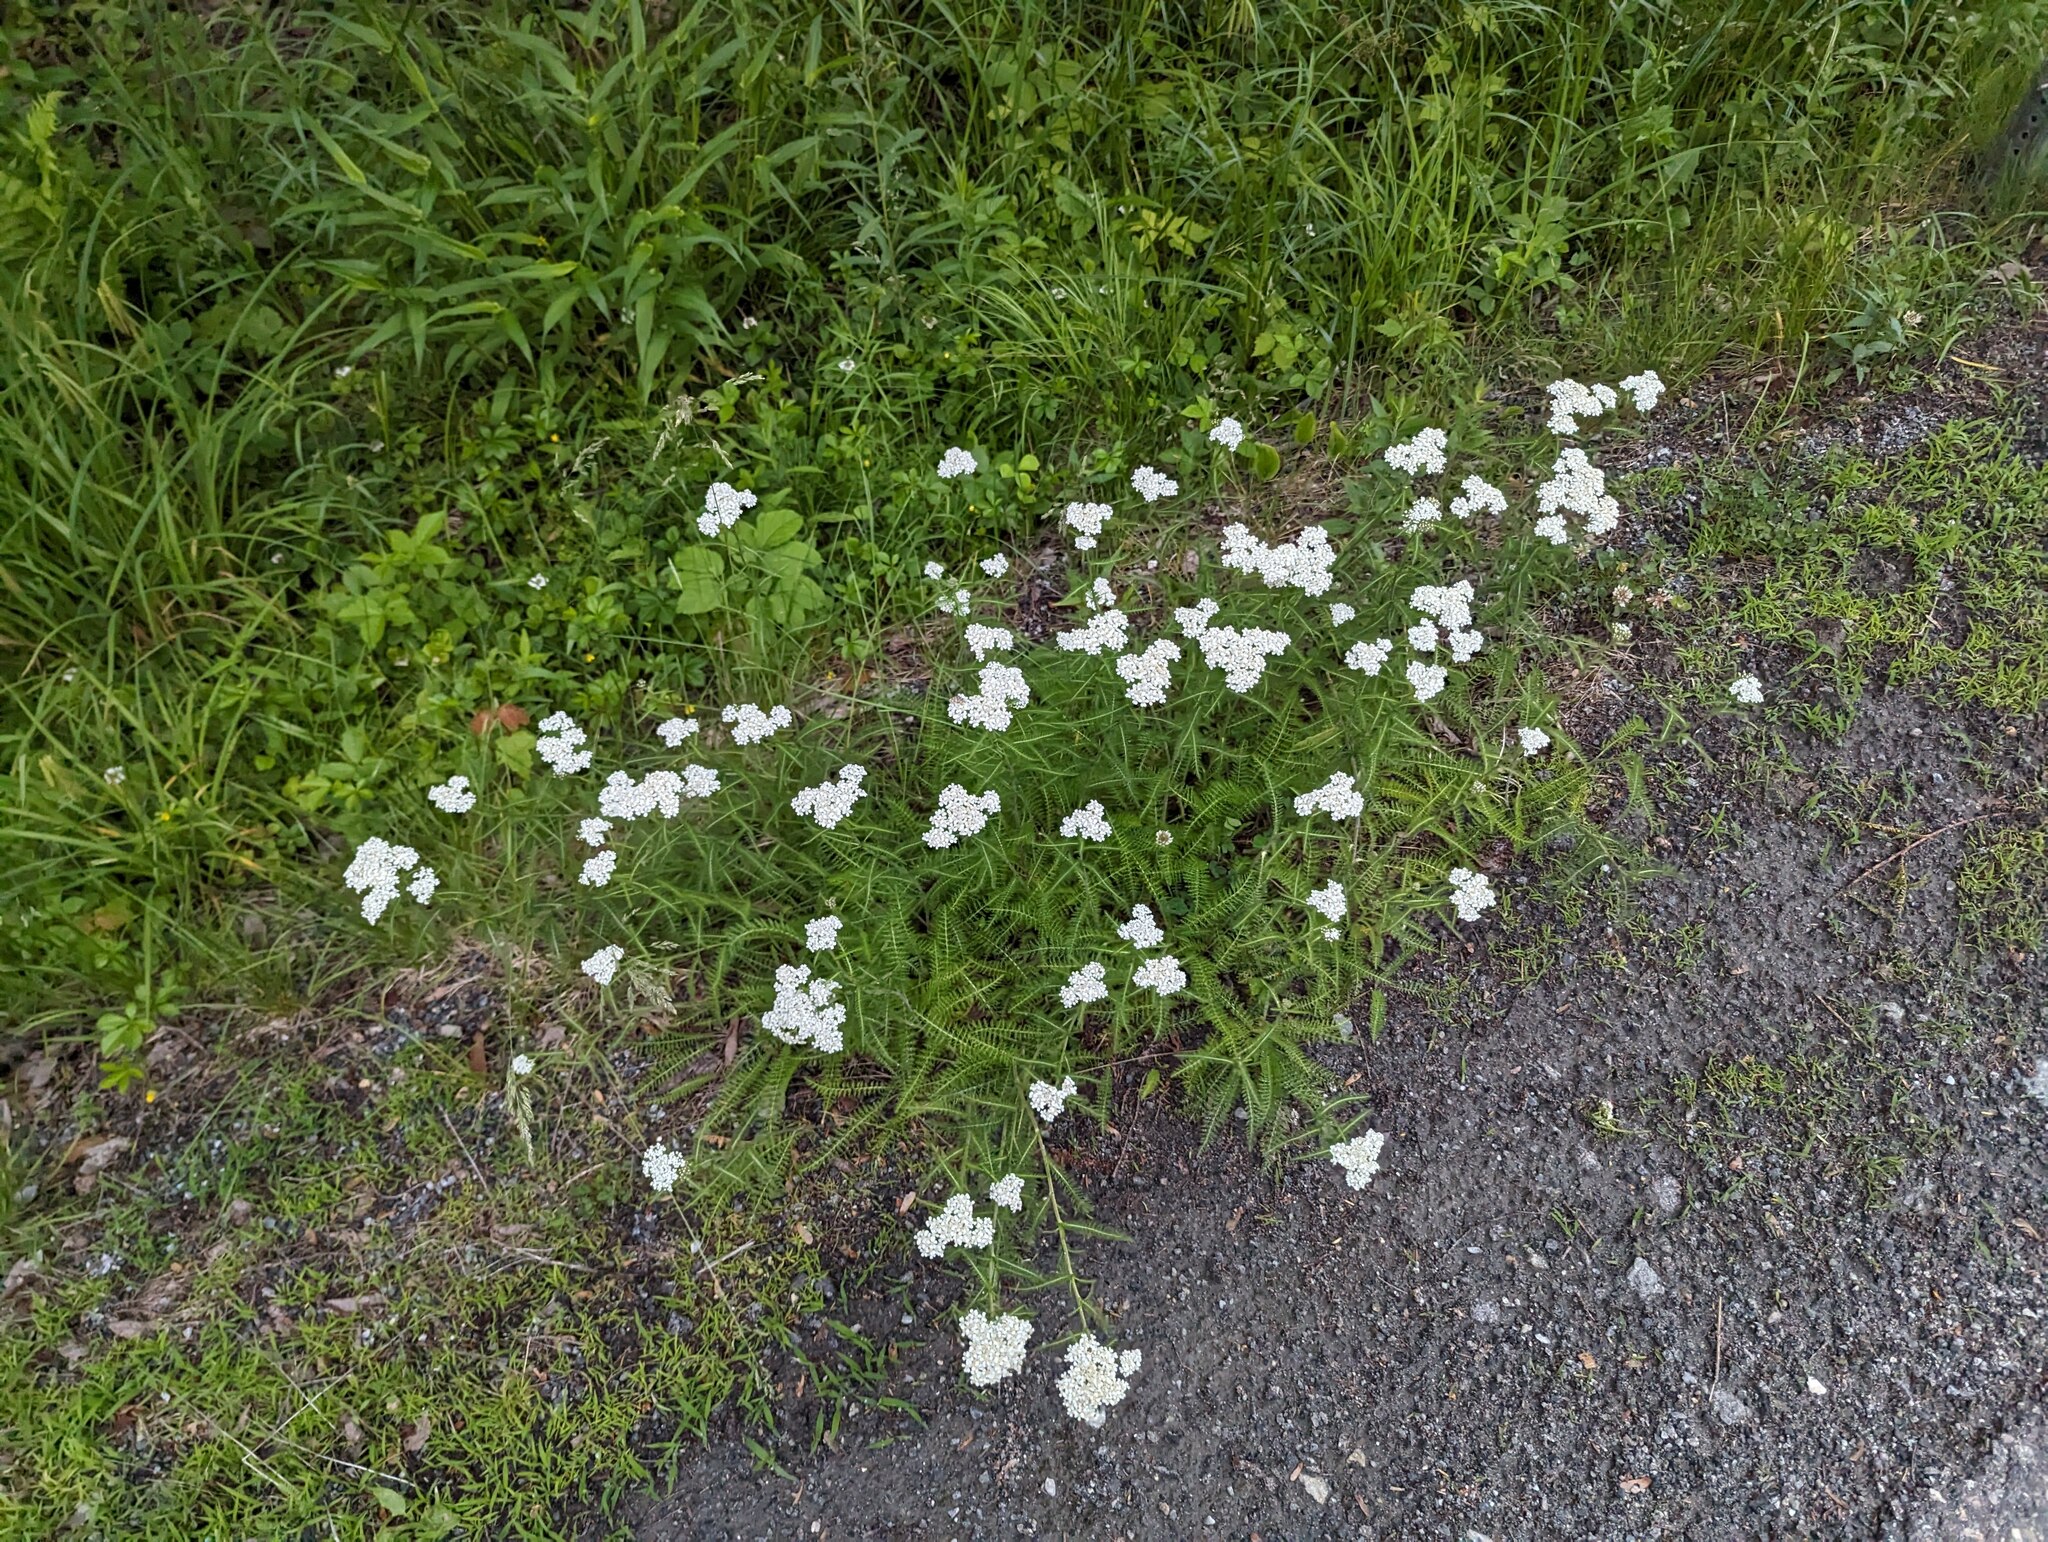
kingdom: Plantae
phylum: Tracheophyta
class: Magnoliopsida
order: Asterales
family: Asteraceae
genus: Achillea
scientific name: Achillea millefolium
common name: Yarrow
